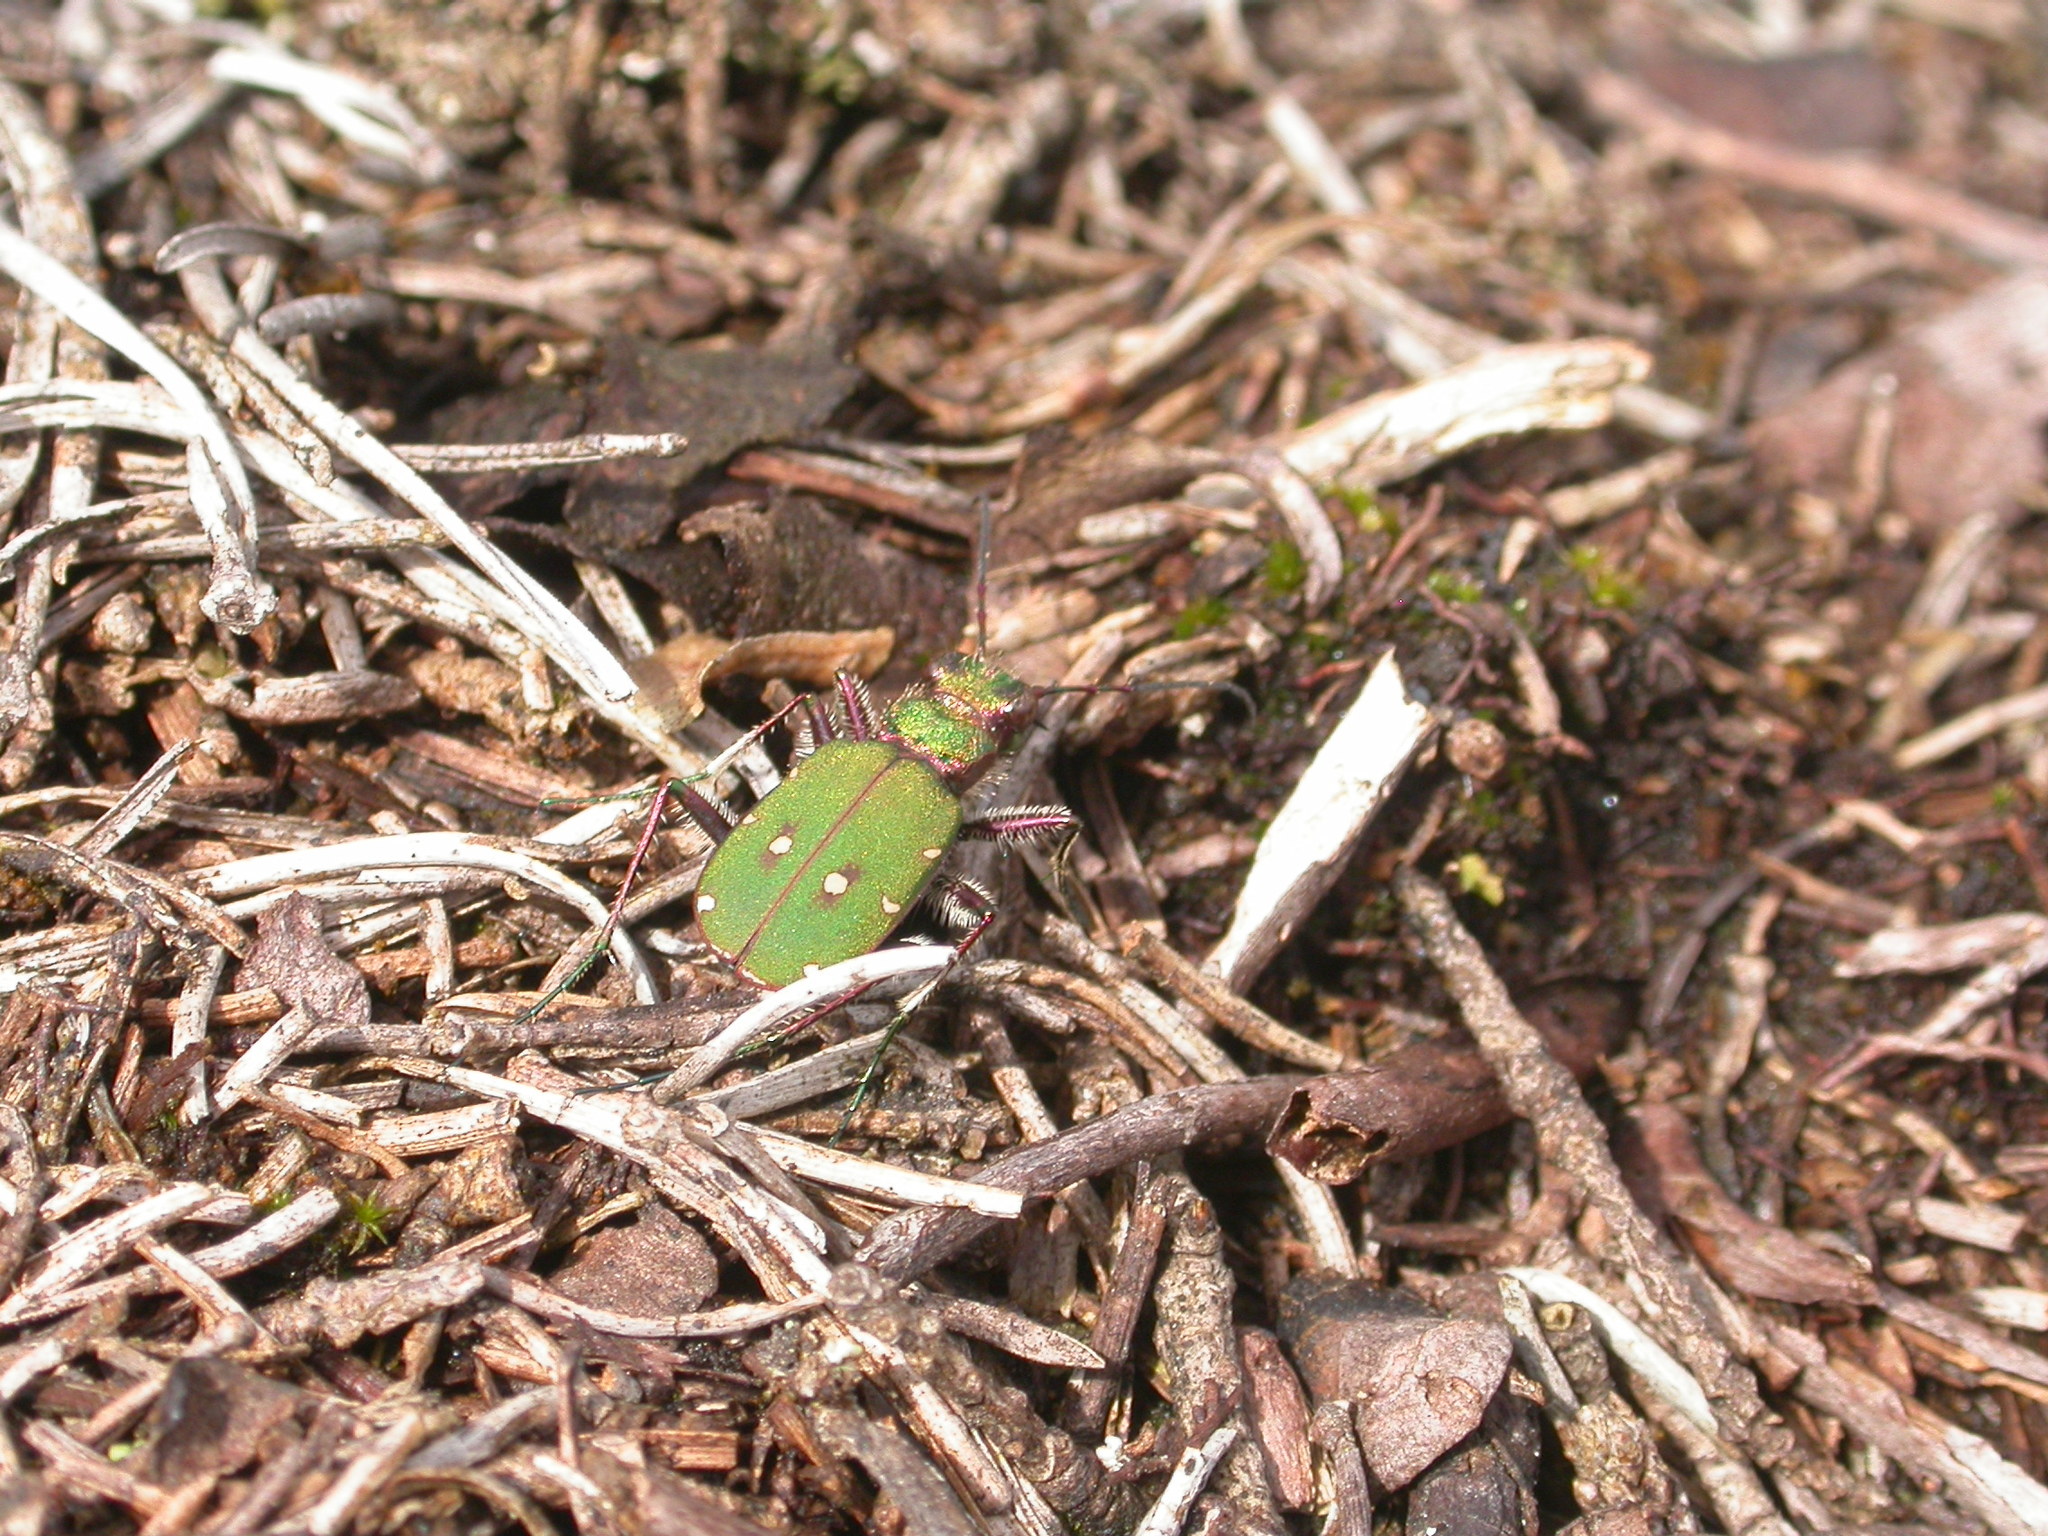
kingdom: Animalia
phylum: Arthropoda
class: Insecta
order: Coleoptera
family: Carabidae
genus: Cicindela
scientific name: Cicindela campestris
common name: Common tiger beetle
